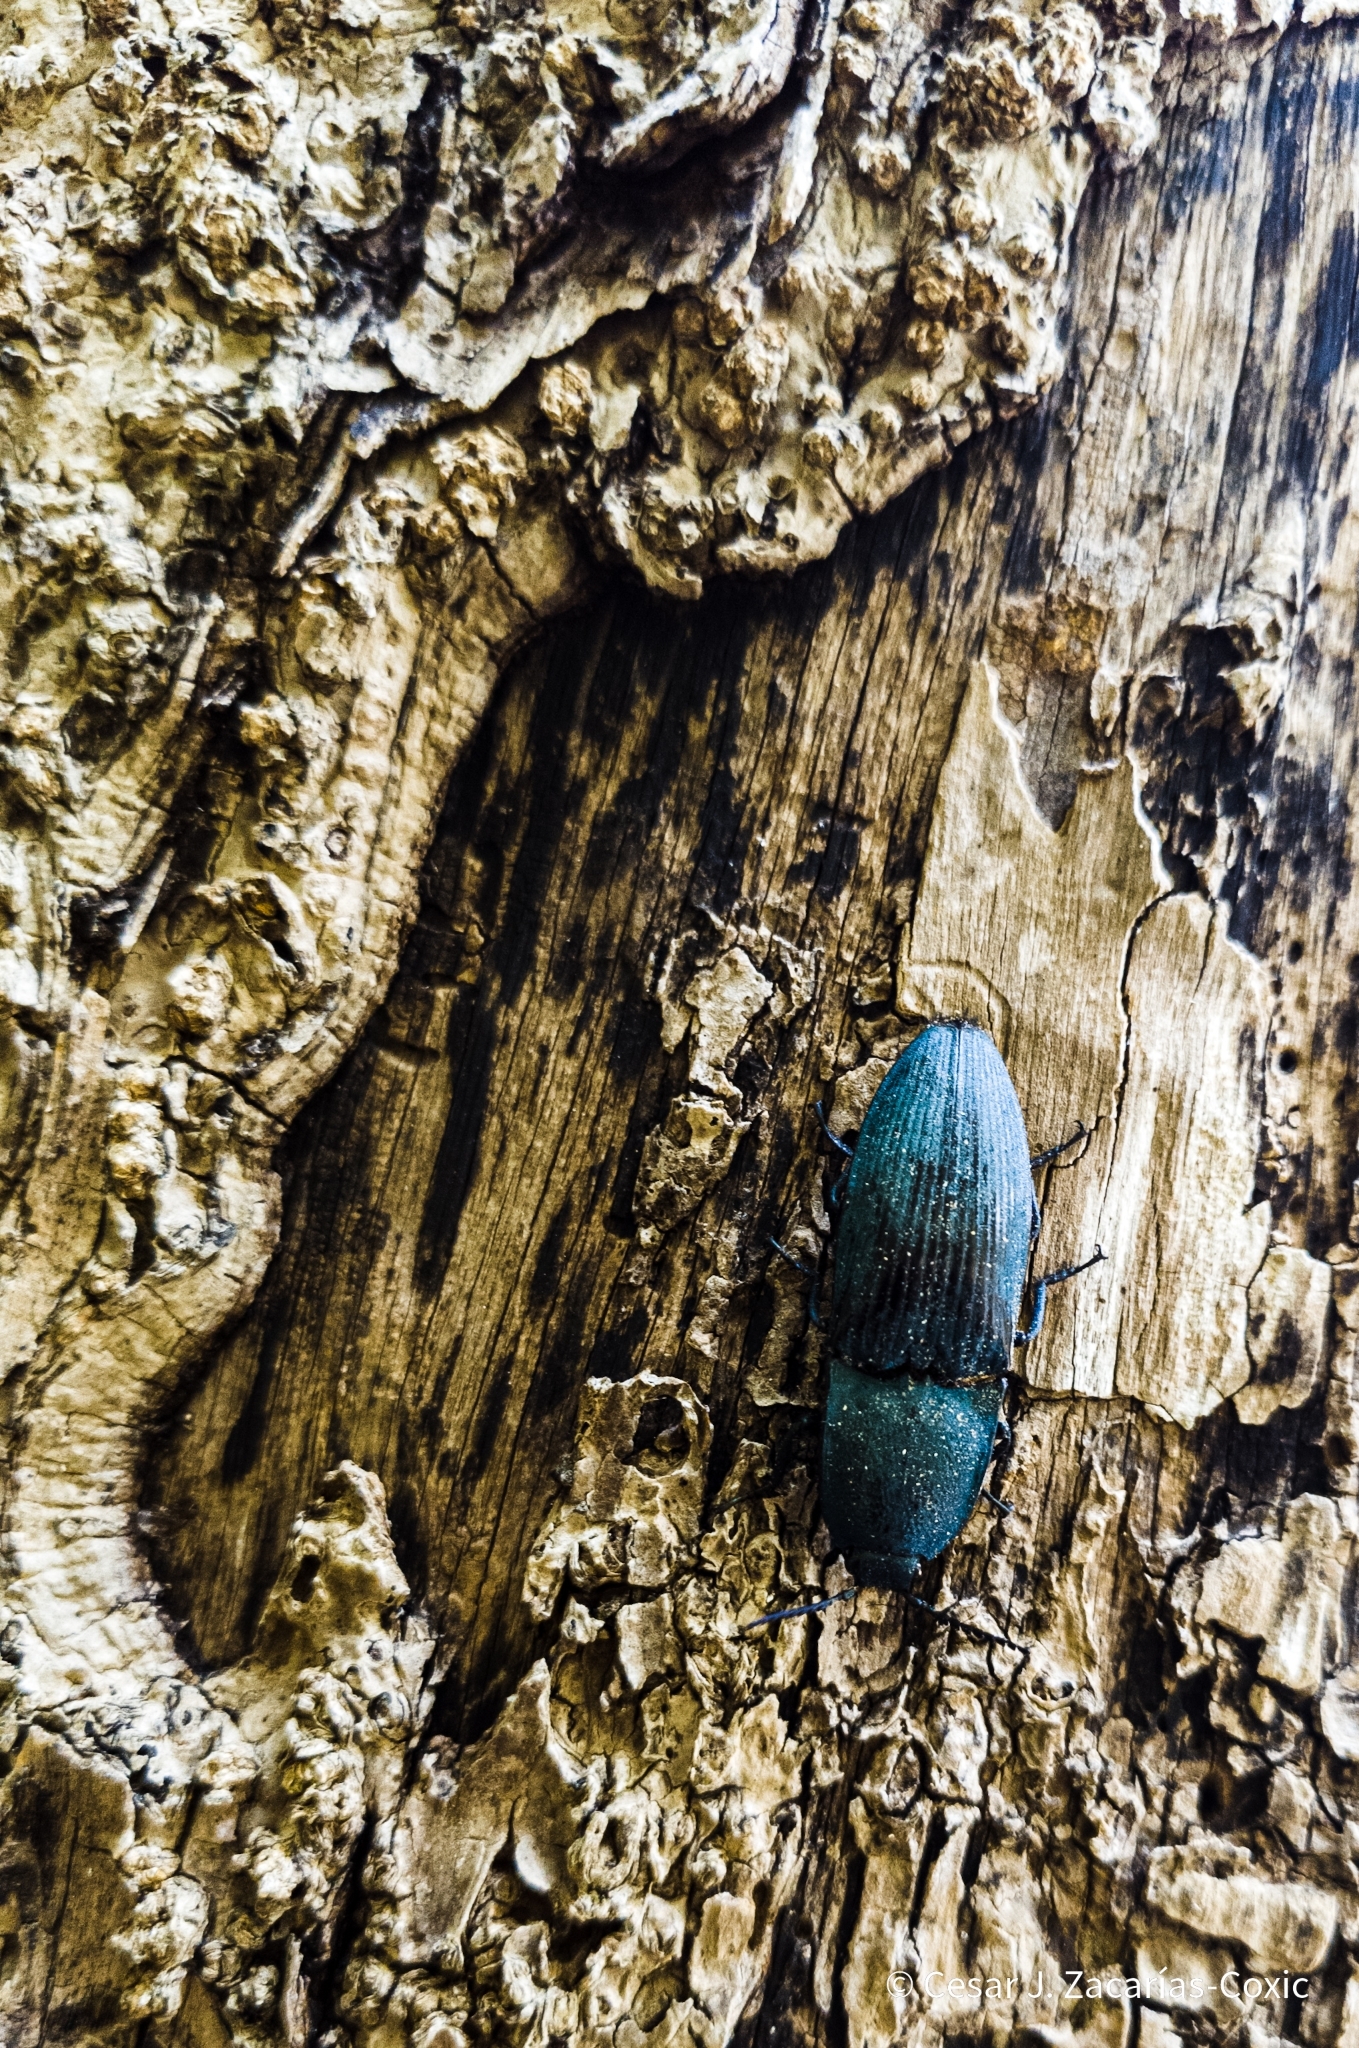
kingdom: Animalia
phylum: Arthropoda
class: Insecta
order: Coleoptera
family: Elateridae
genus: Chalcolepidius
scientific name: Chalcolepidius lacordairei
